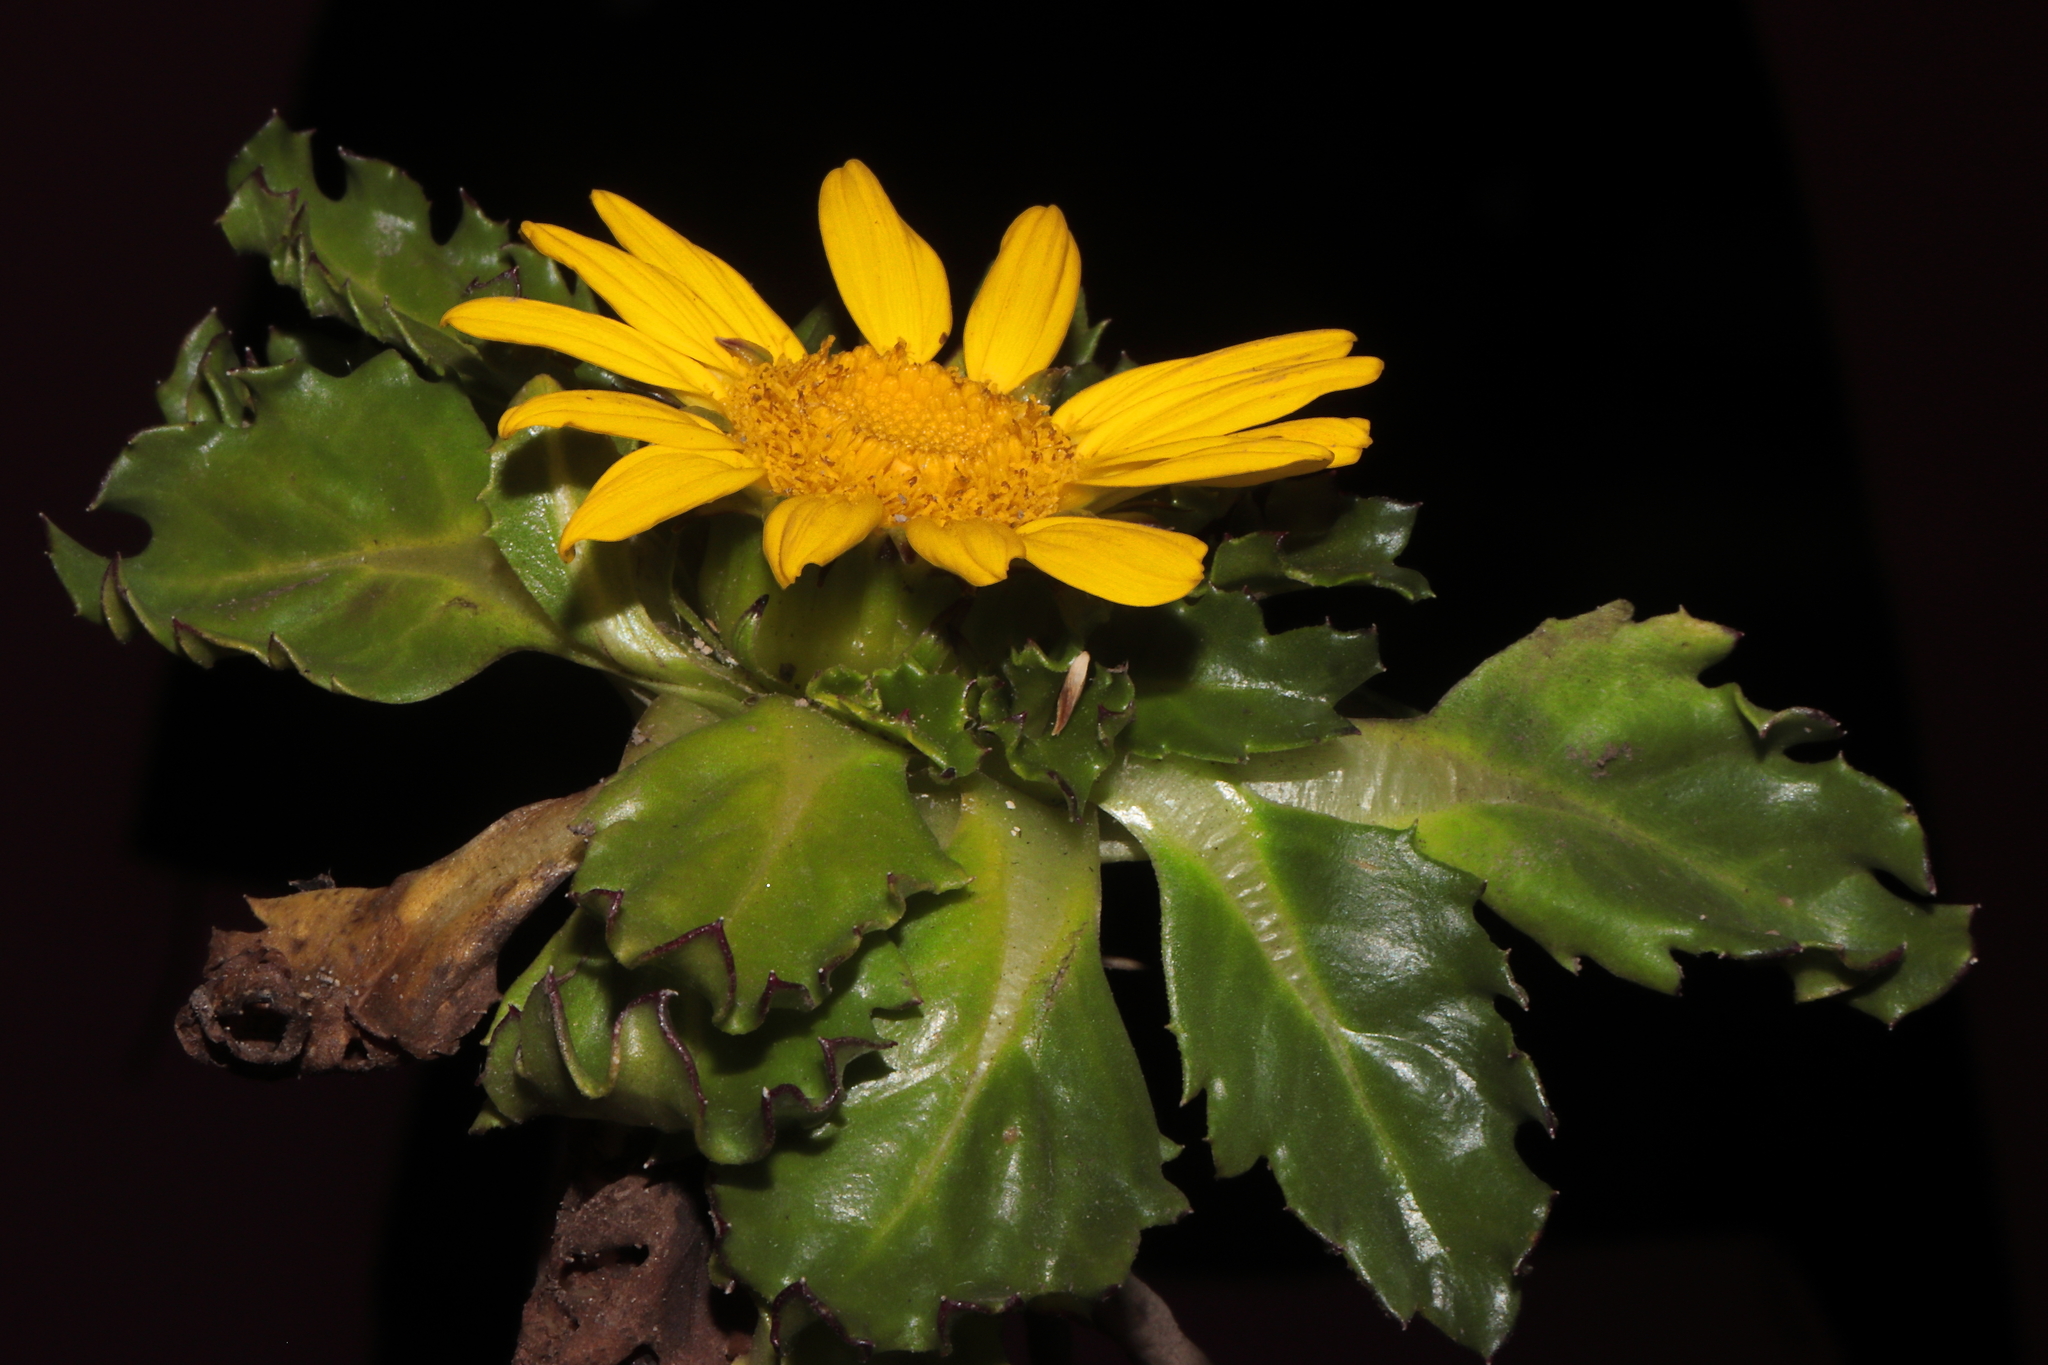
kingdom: Plantae
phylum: Tracheophyta
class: Magnoliopsida
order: Asterales
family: Asteraceae
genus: Senecio
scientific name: Senecio breviscapus
